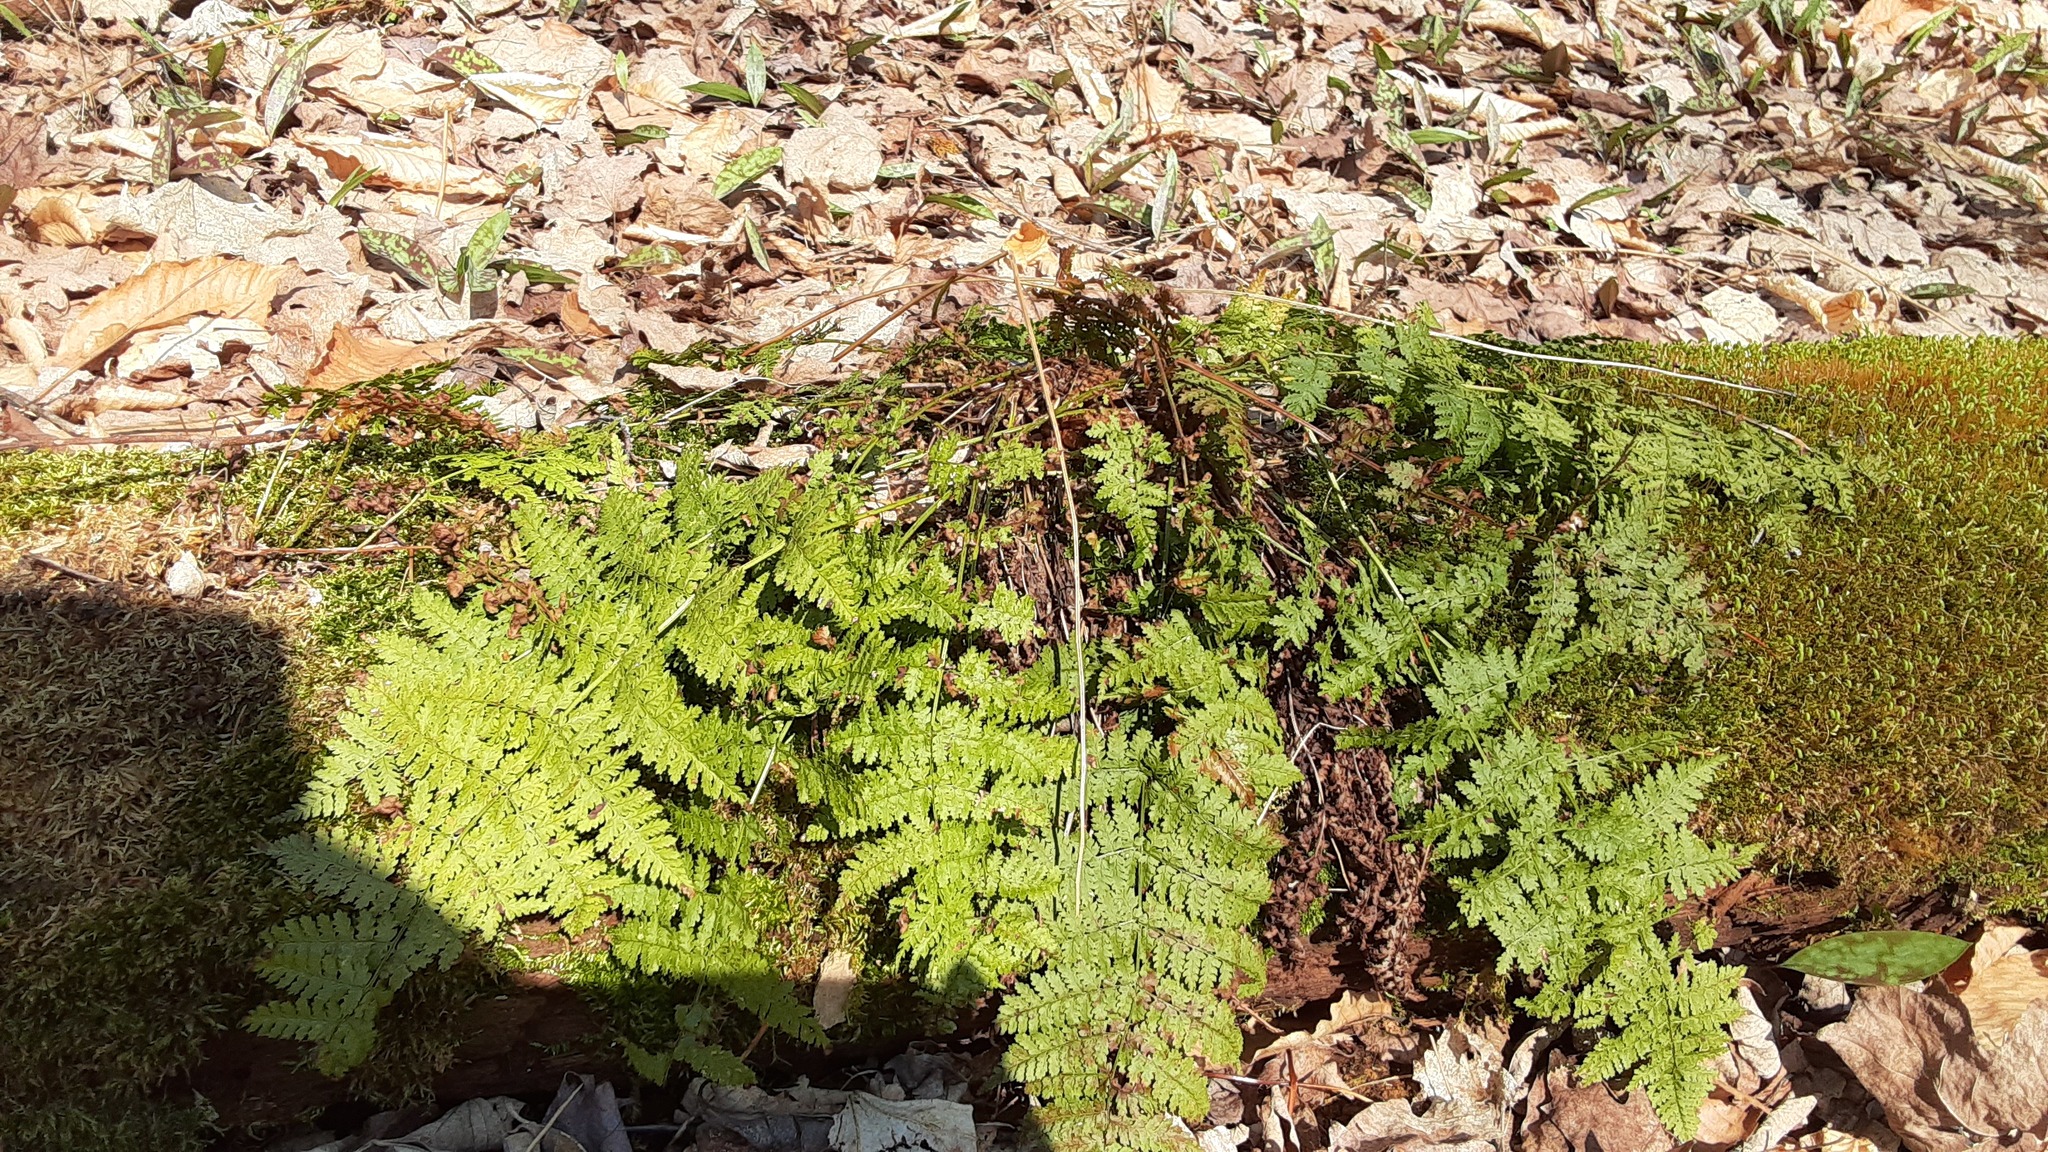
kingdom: Plantae
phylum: Tracheophyta
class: Polypodiopsida
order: Polypodiales
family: Dryopteridaceae
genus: Dryopteris
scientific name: Dryopteris intermedia
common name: Evergreen wood fern
